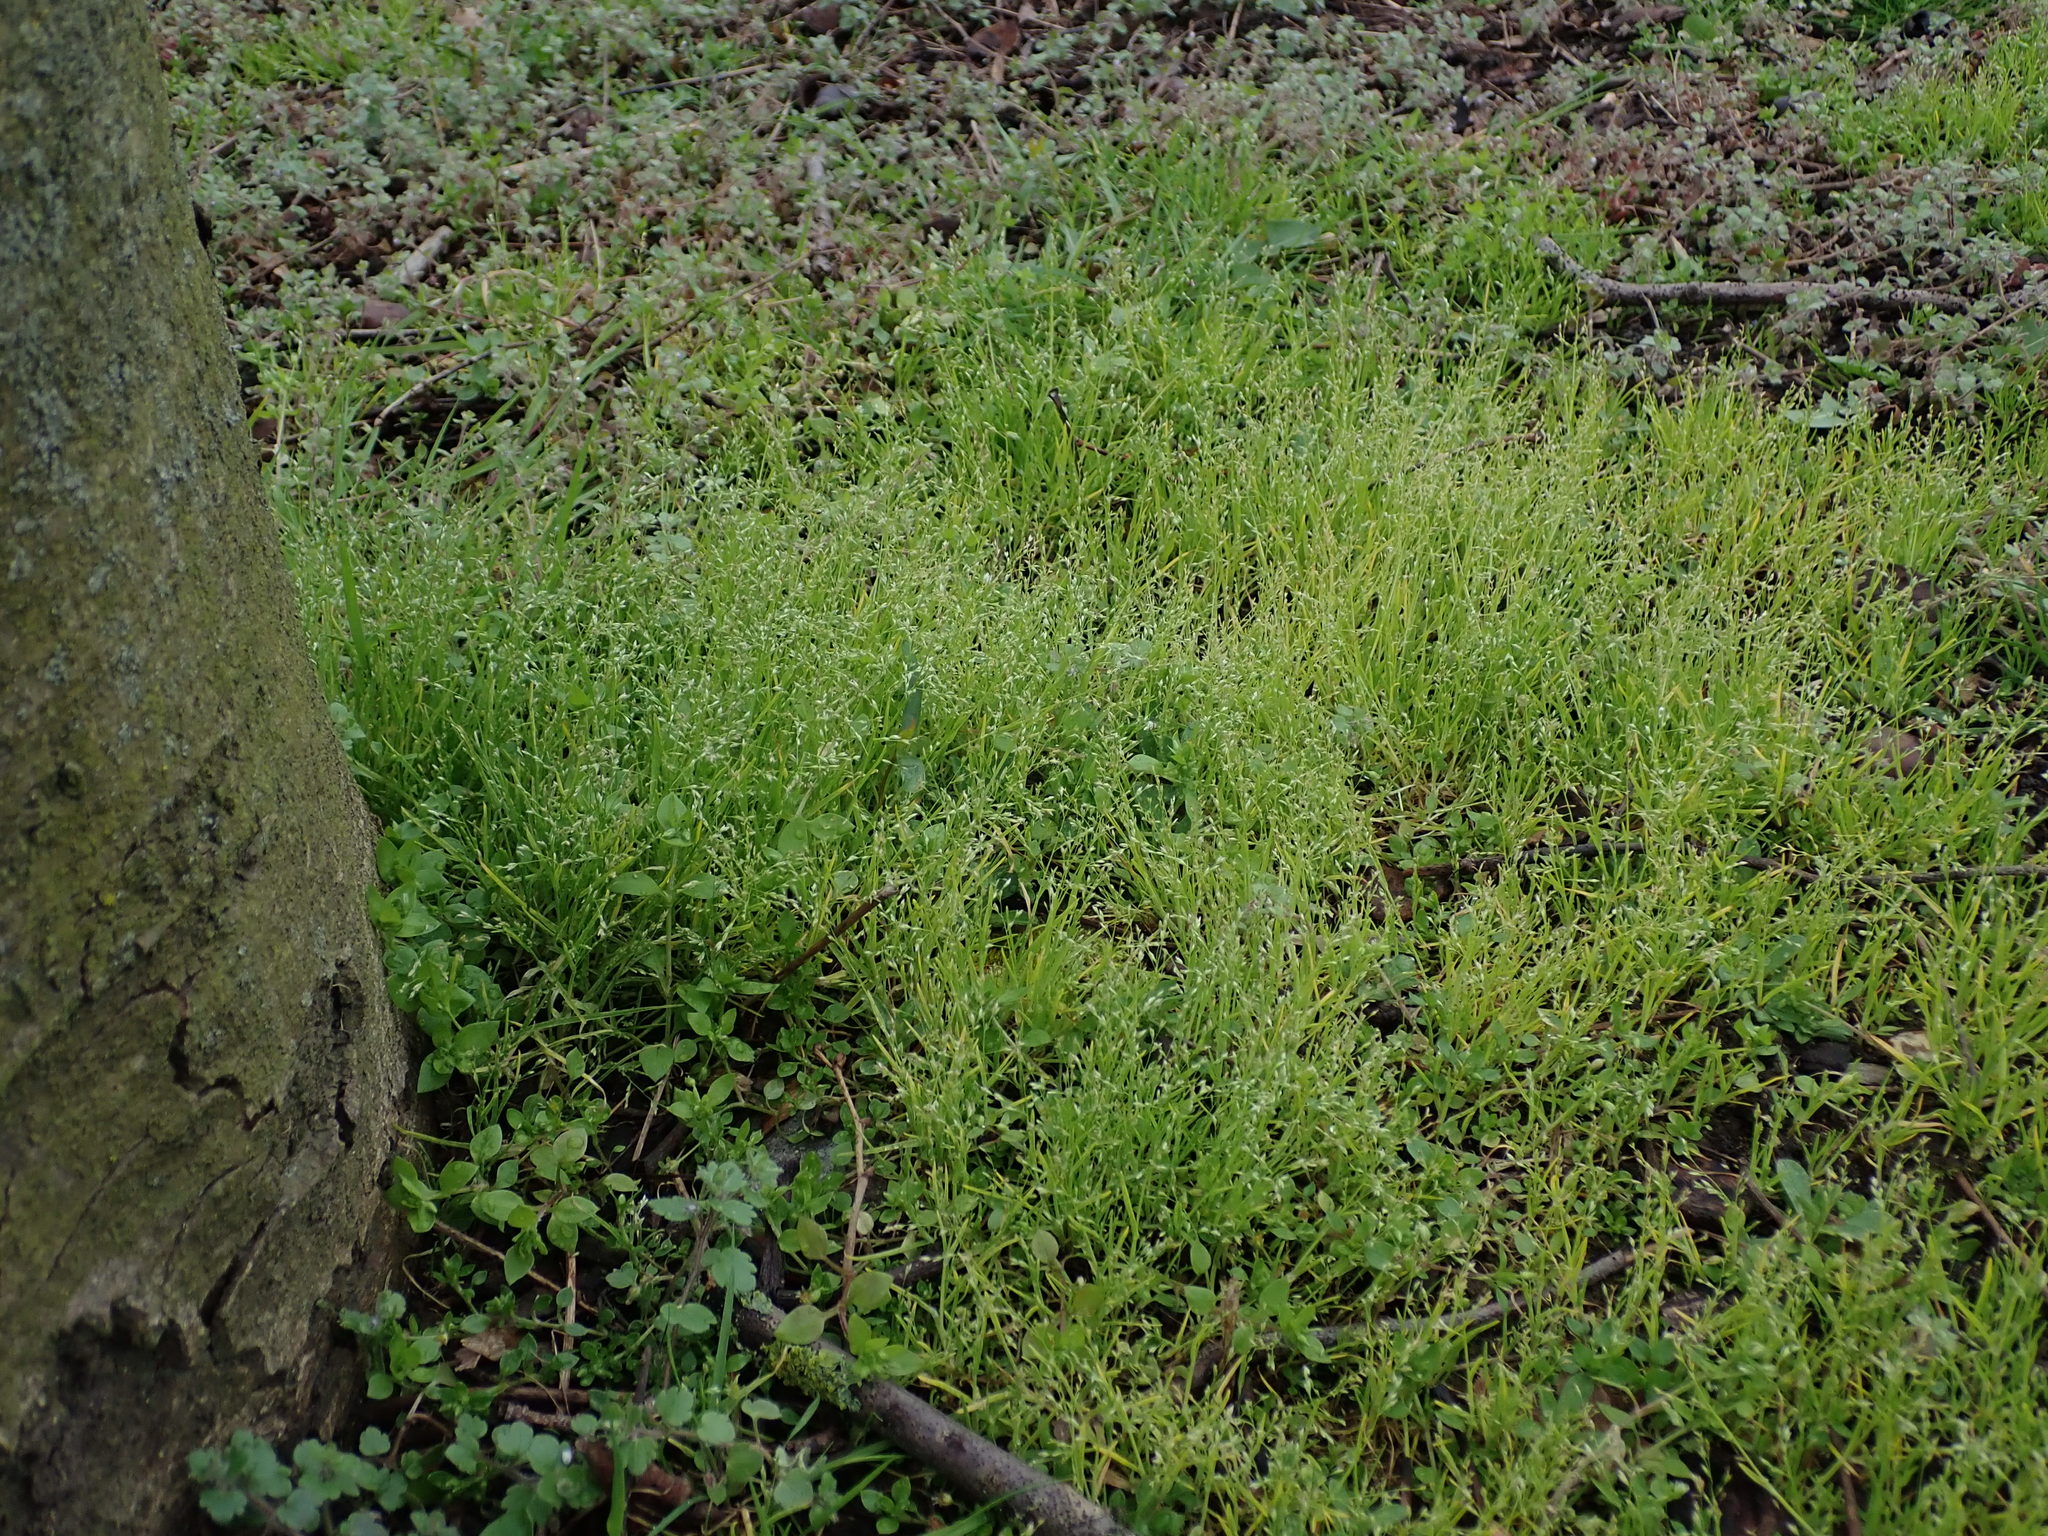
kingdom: Plantae
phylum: Tracheophyta
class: Liliopsida
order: Poales
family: Poaceae
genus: Poa
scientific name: Poa infirma
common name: Weak bluegrass
